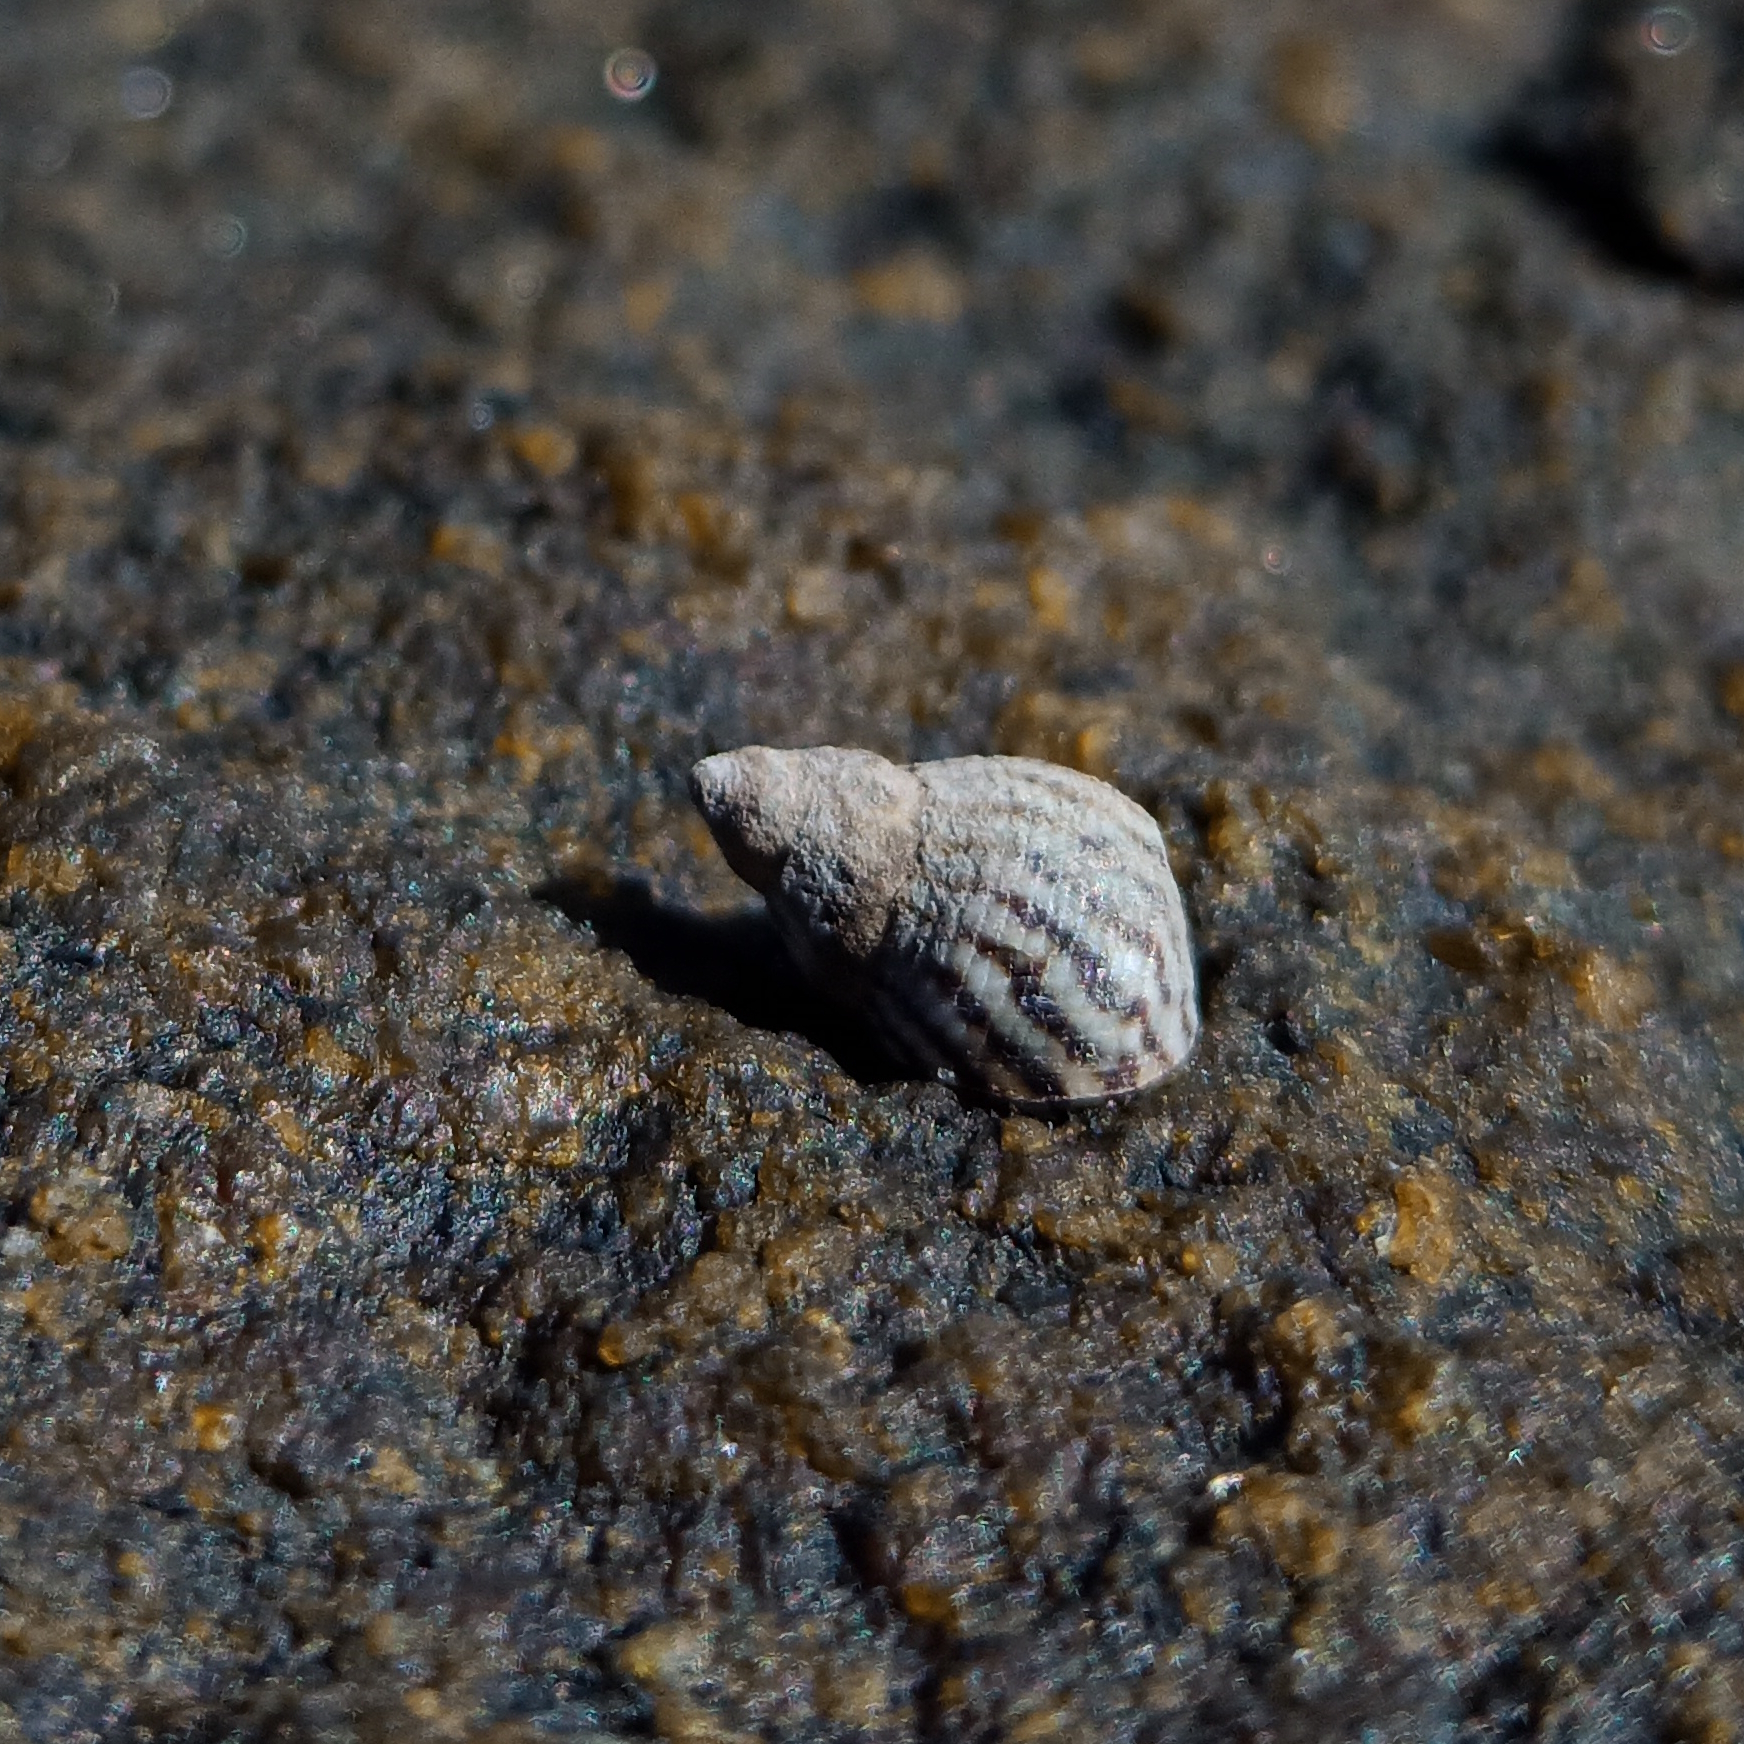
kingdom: Animalia
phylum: Mollusca
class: Gastropoda
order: Littorinimorpha
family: Littorinidae
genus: Echinolittorina
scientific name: Echinolittorina lineolata
